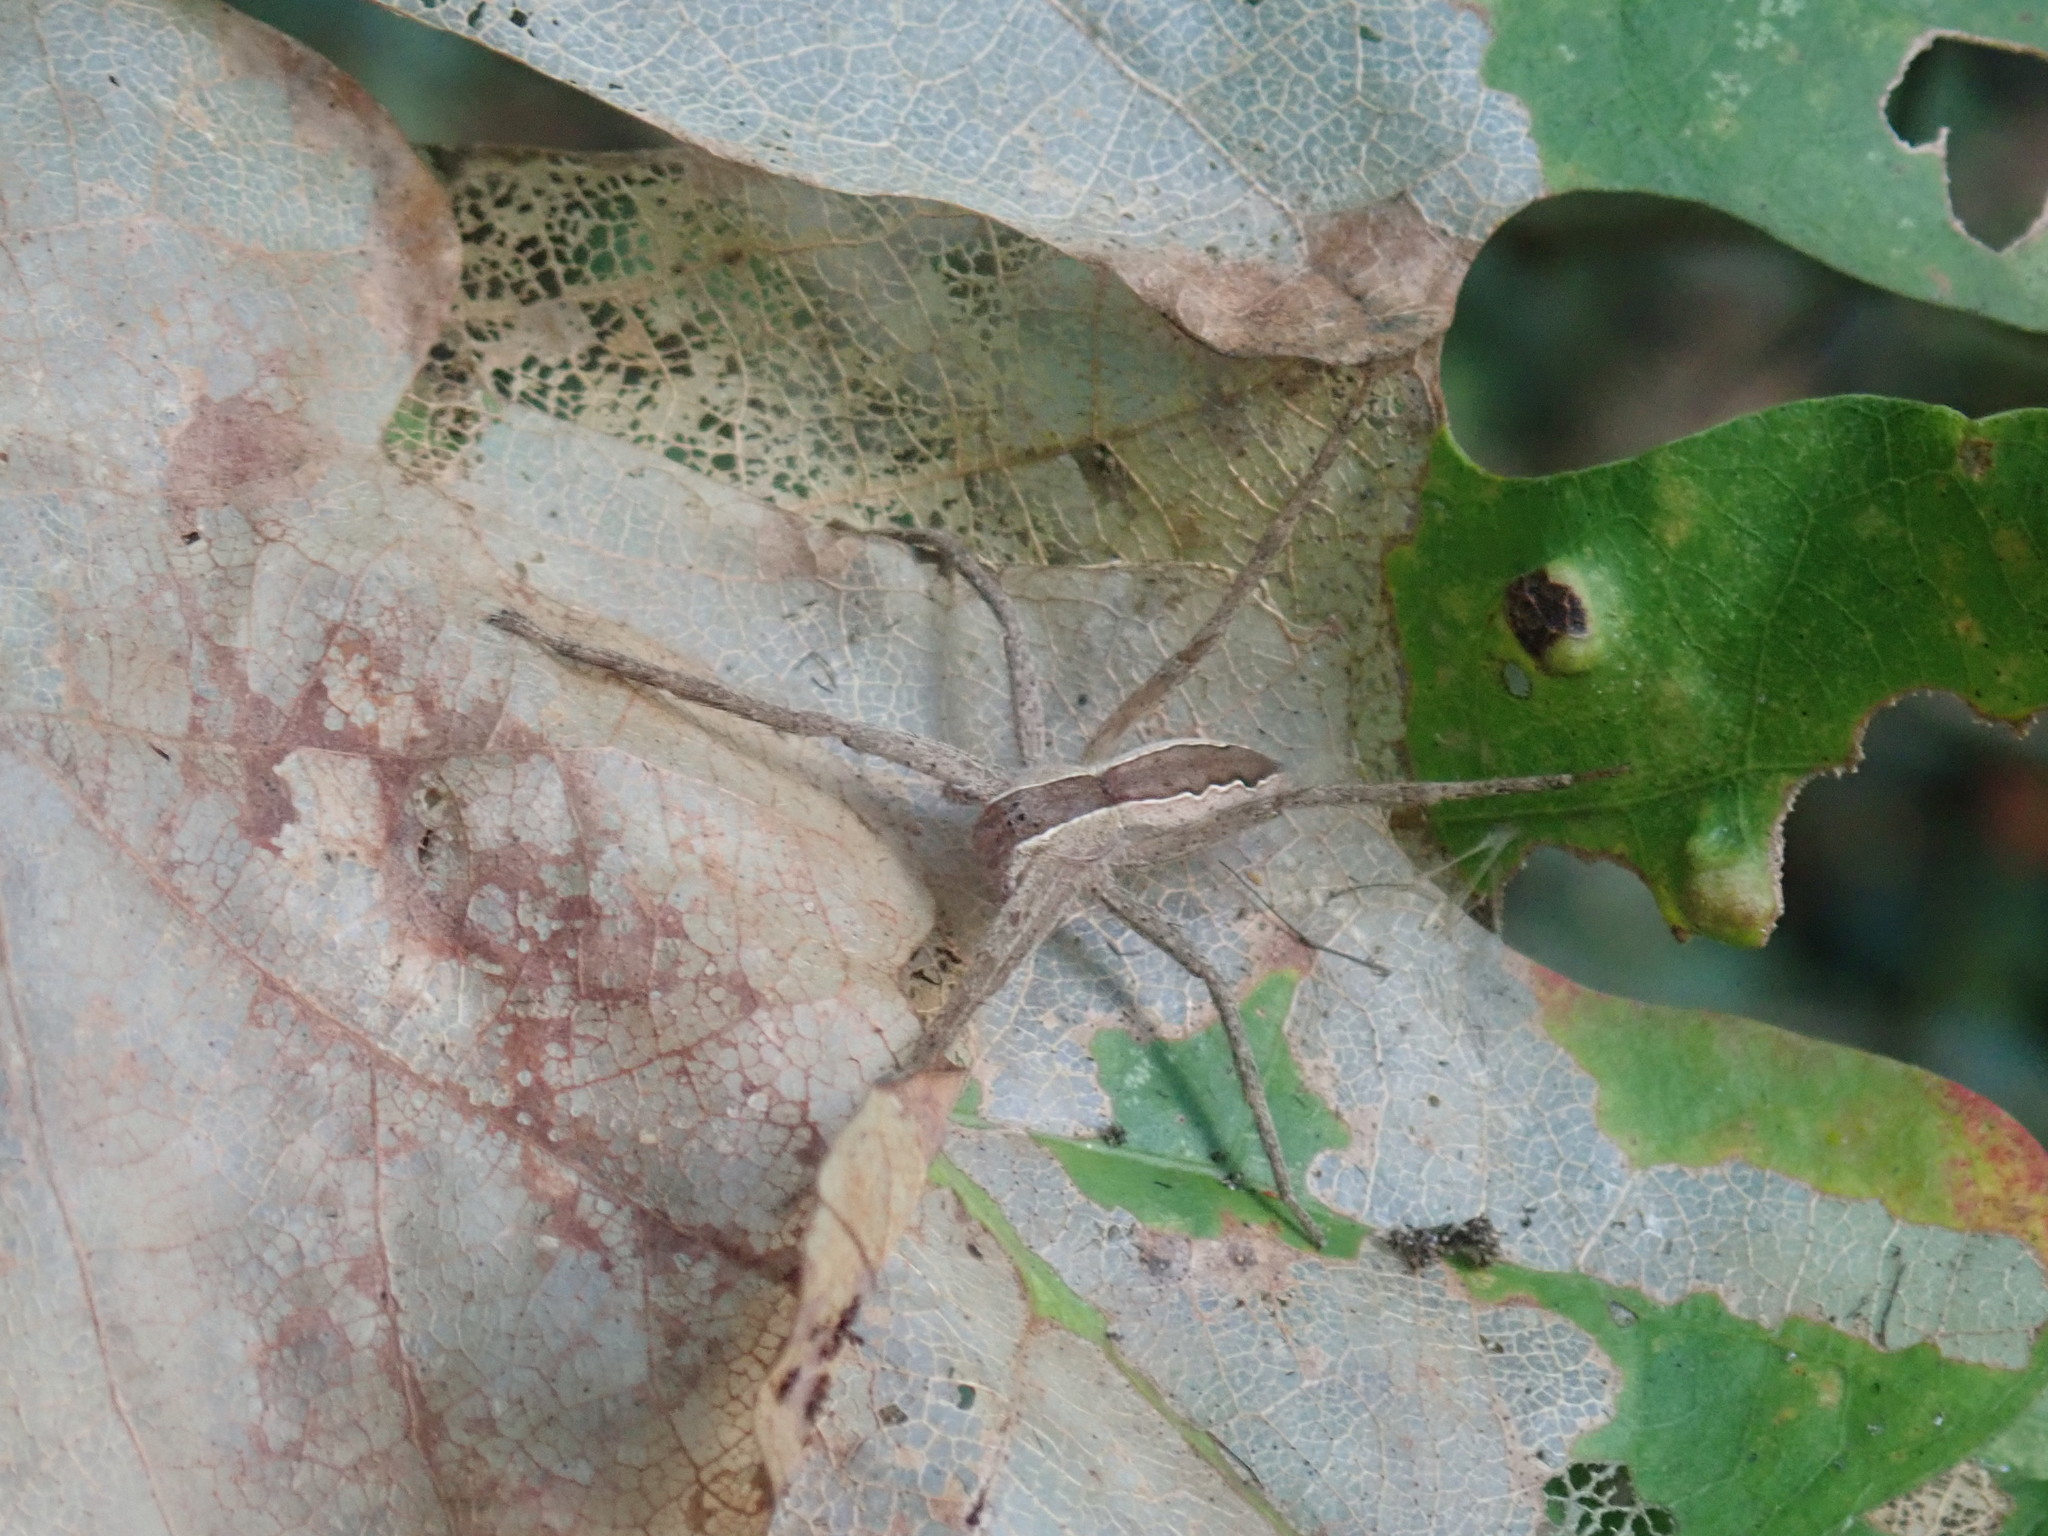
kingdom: Animalia
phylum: Arthropoda
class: Arachnida
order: Araneae
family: Pisauridae
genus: Pisaurina
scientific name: Pisaurina mira
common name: American nursery web spider
